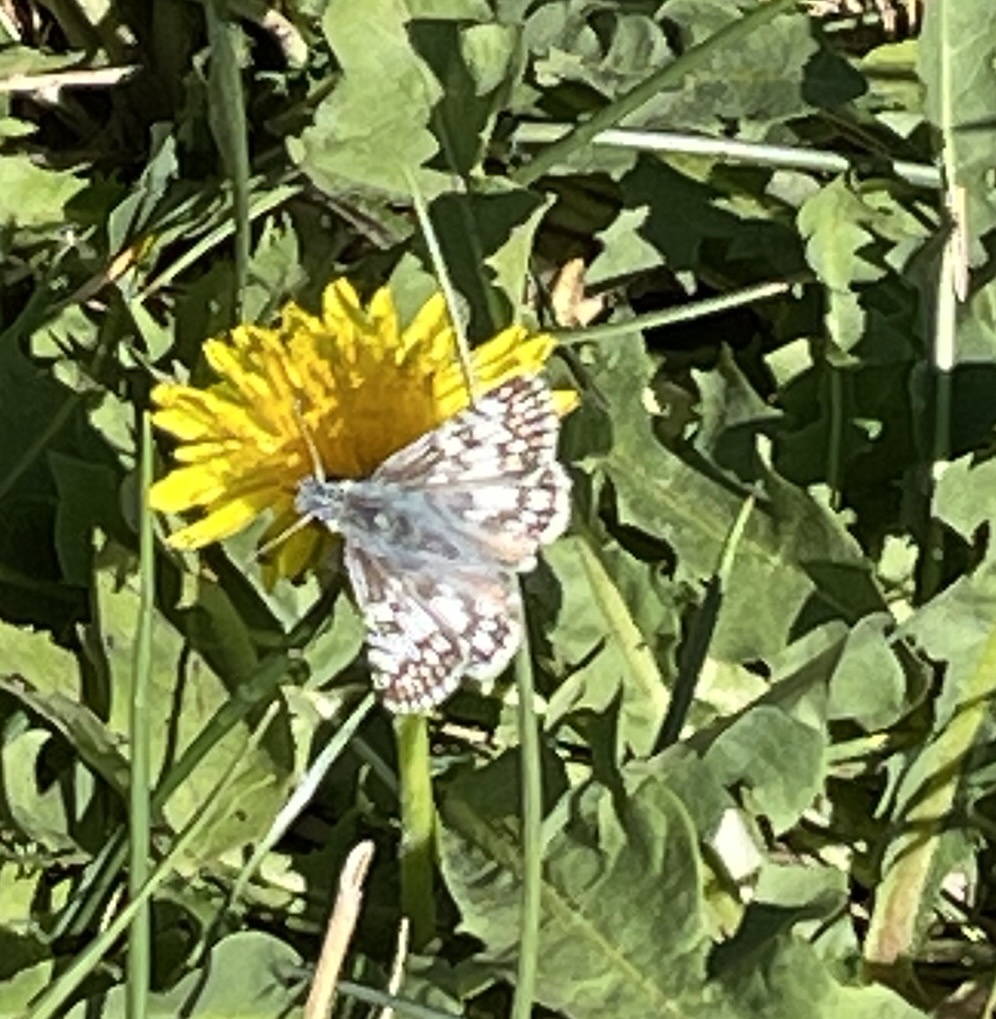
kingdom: Animalia
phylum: Arthropoda
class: Insecta
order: Lepidoptera
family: Hesperiidae
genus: Burnsius
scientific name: Burnsius communis
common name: Common checkered-skipper
